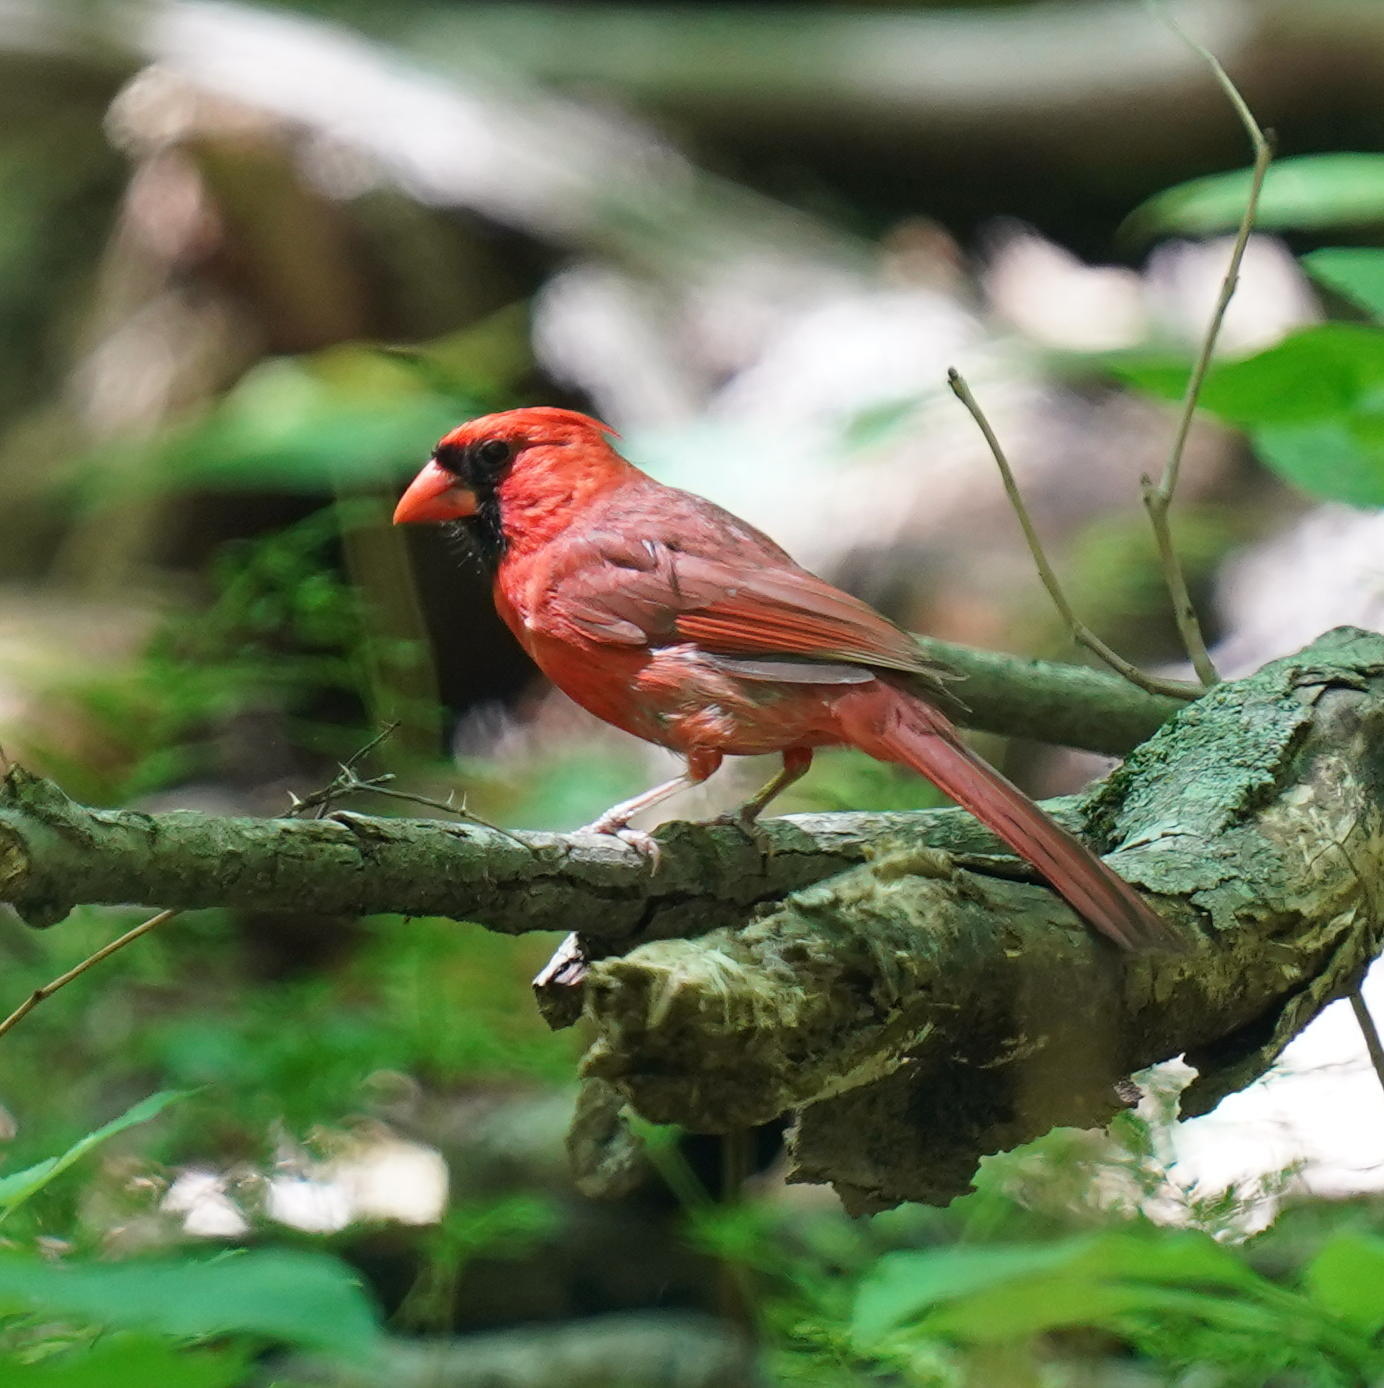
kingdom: Animalia
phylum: Chordata
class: Aves
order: Passeriformes
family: Cardinalidae
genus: Cardinalis
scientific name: Cardinalis cardinalis
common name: Northern cardinal
